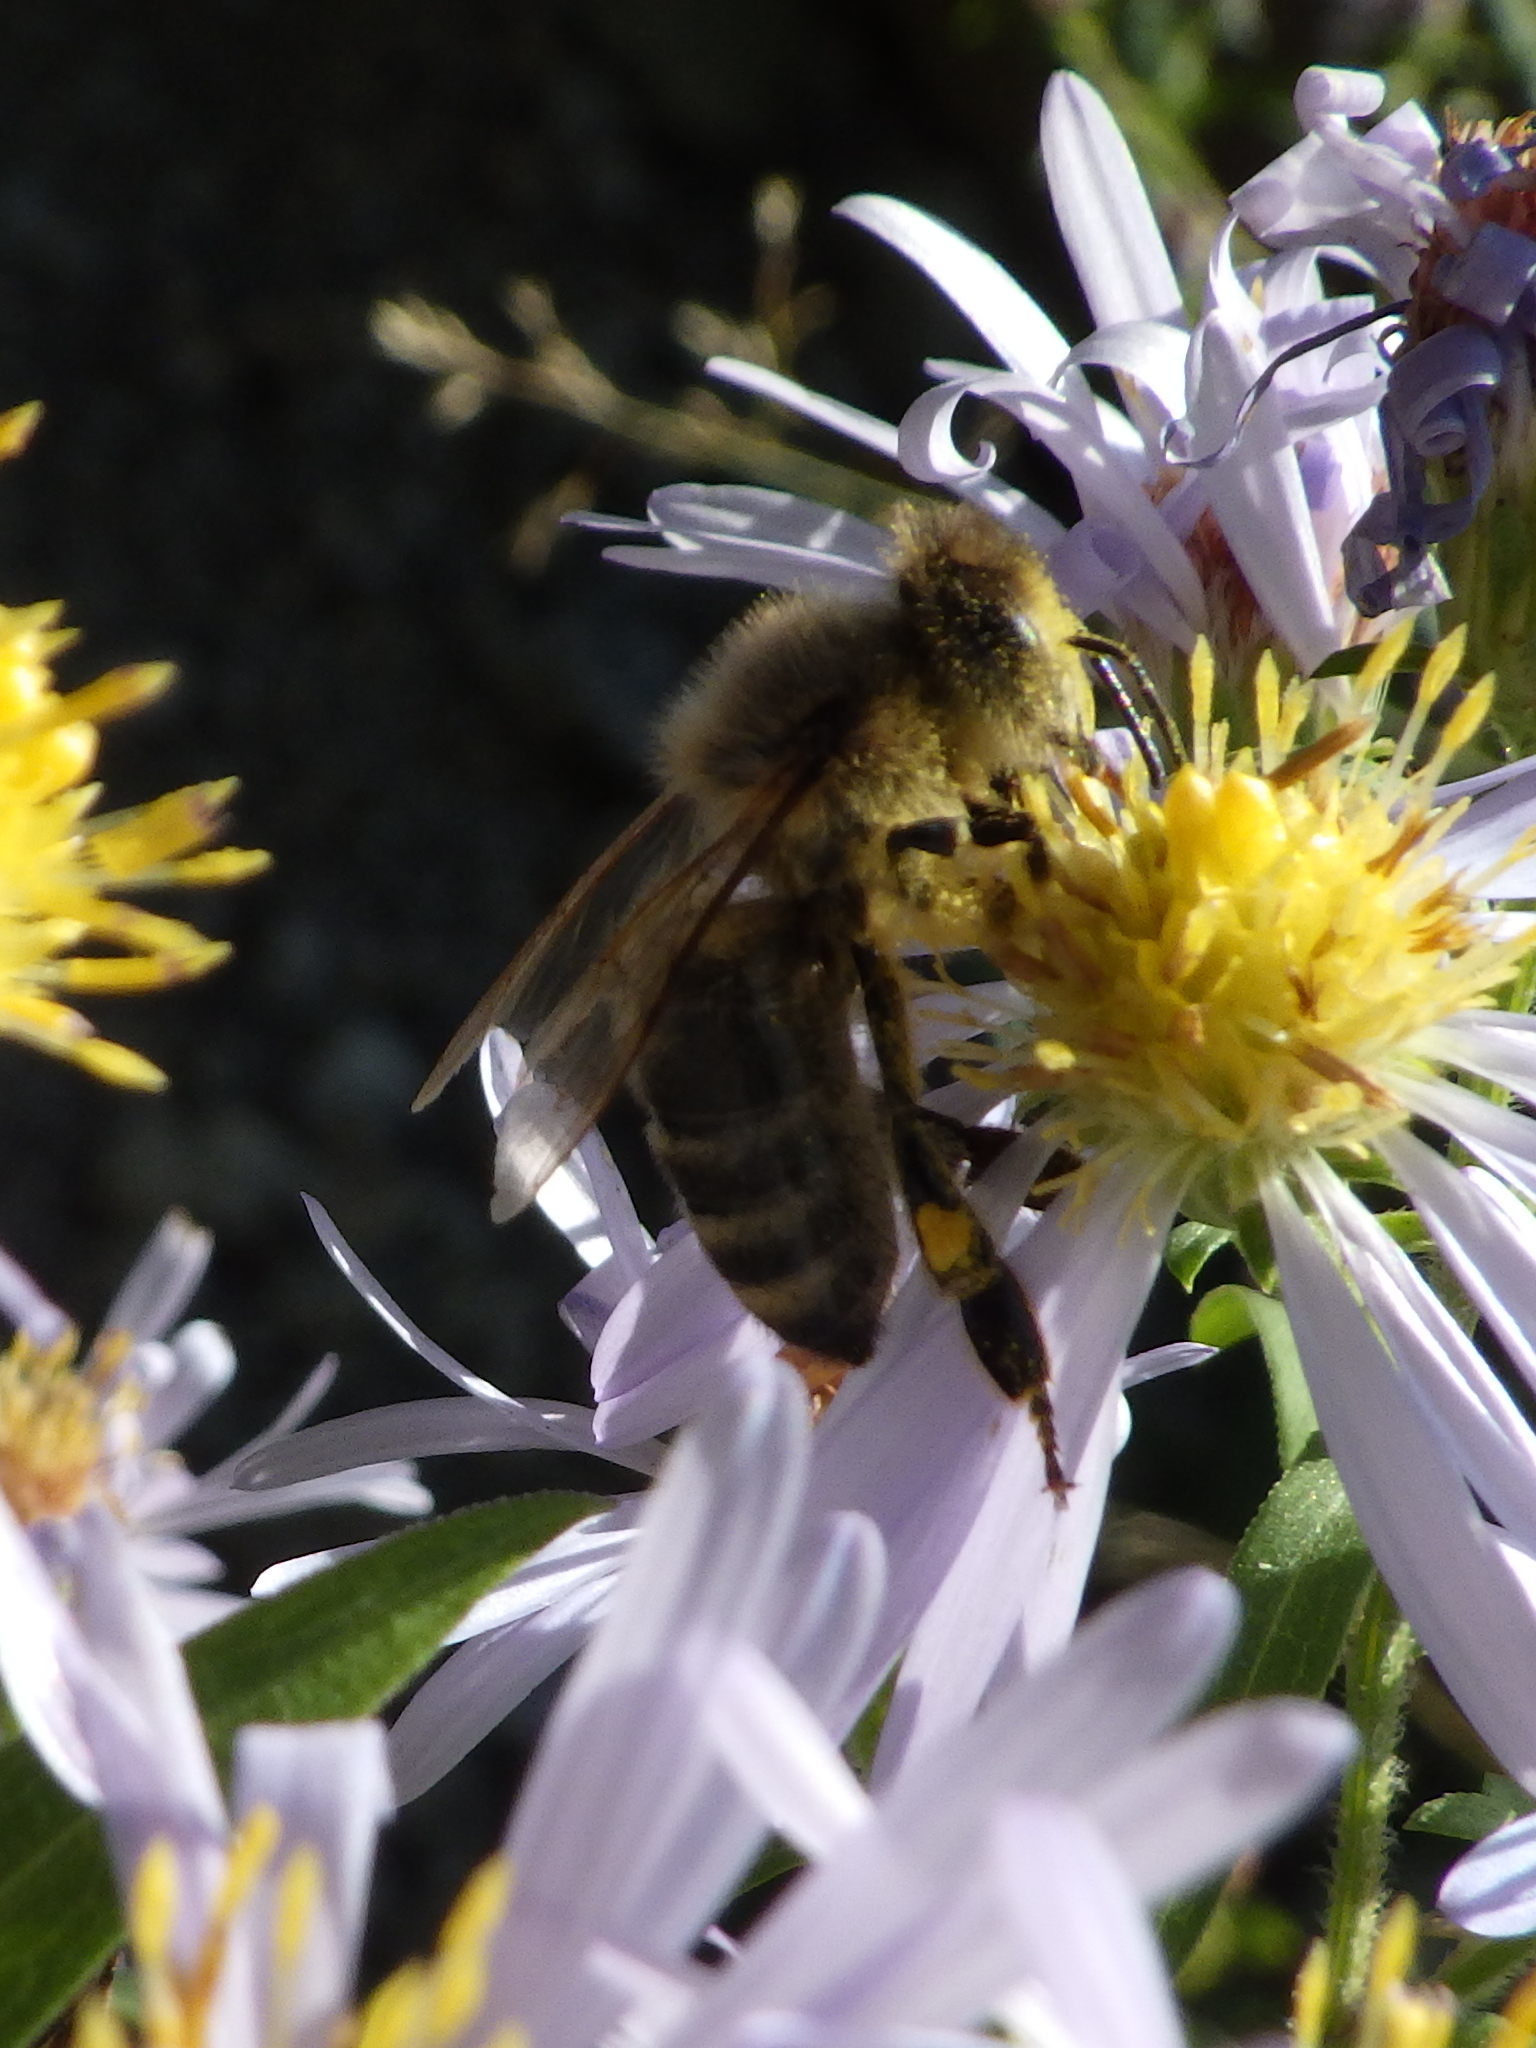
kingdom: Animalia
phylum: Arthropoda
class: Insecta
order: Hymenoptera
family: Apidae
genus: Apis
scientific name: Apis mellifera
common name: Honey bee
